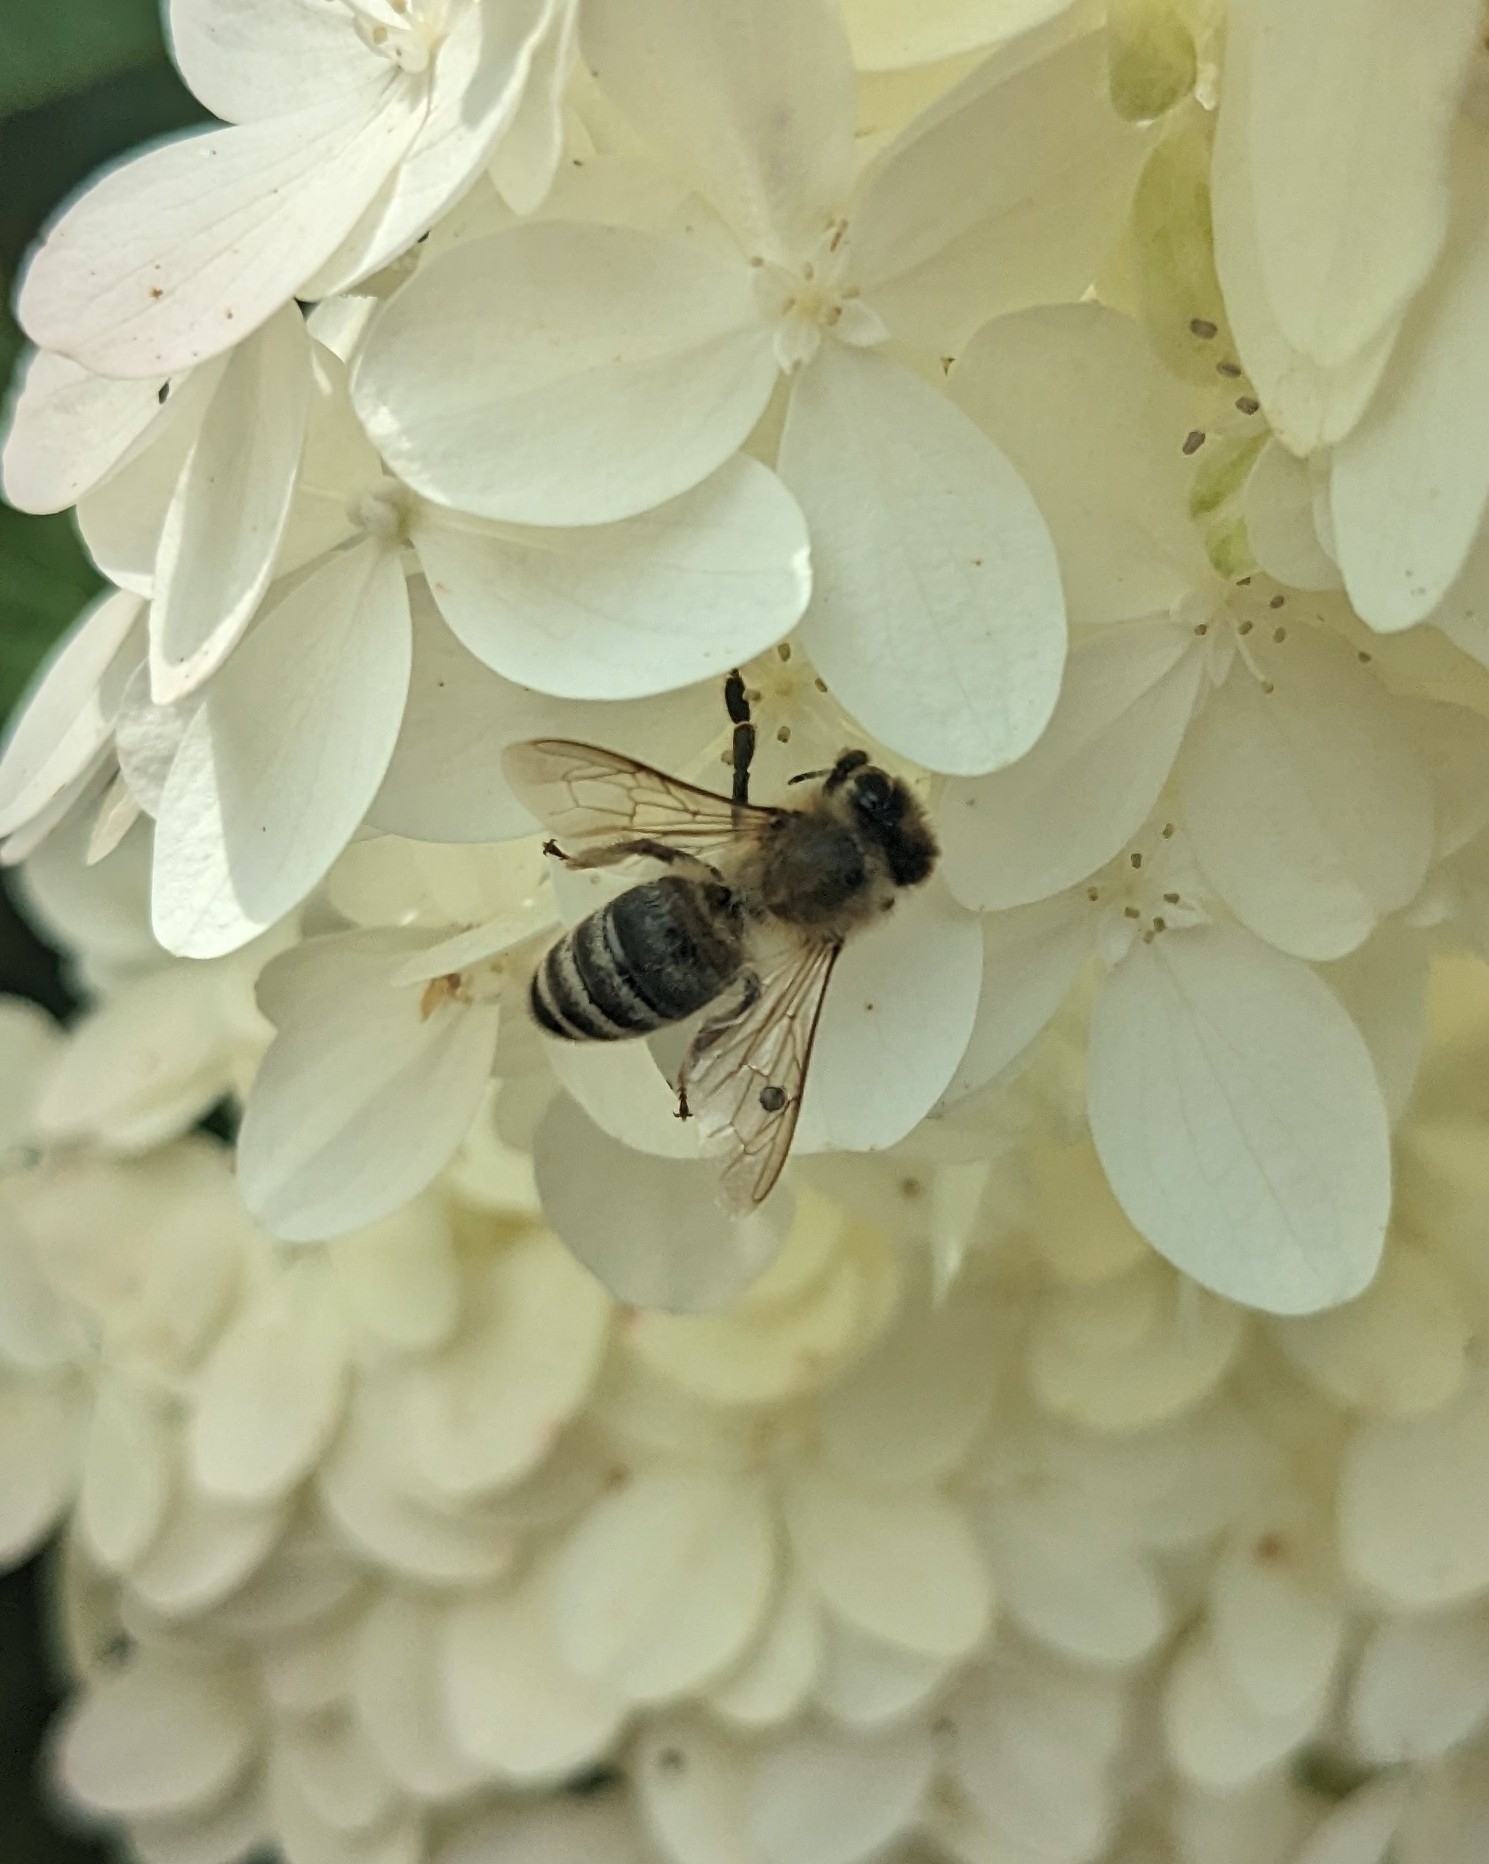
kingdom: Animalia
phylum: Arthropoda
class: Insecta
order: Hymenoptera
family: Apidae
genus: Apis
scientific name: Apis mellifera
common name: Honey bee
